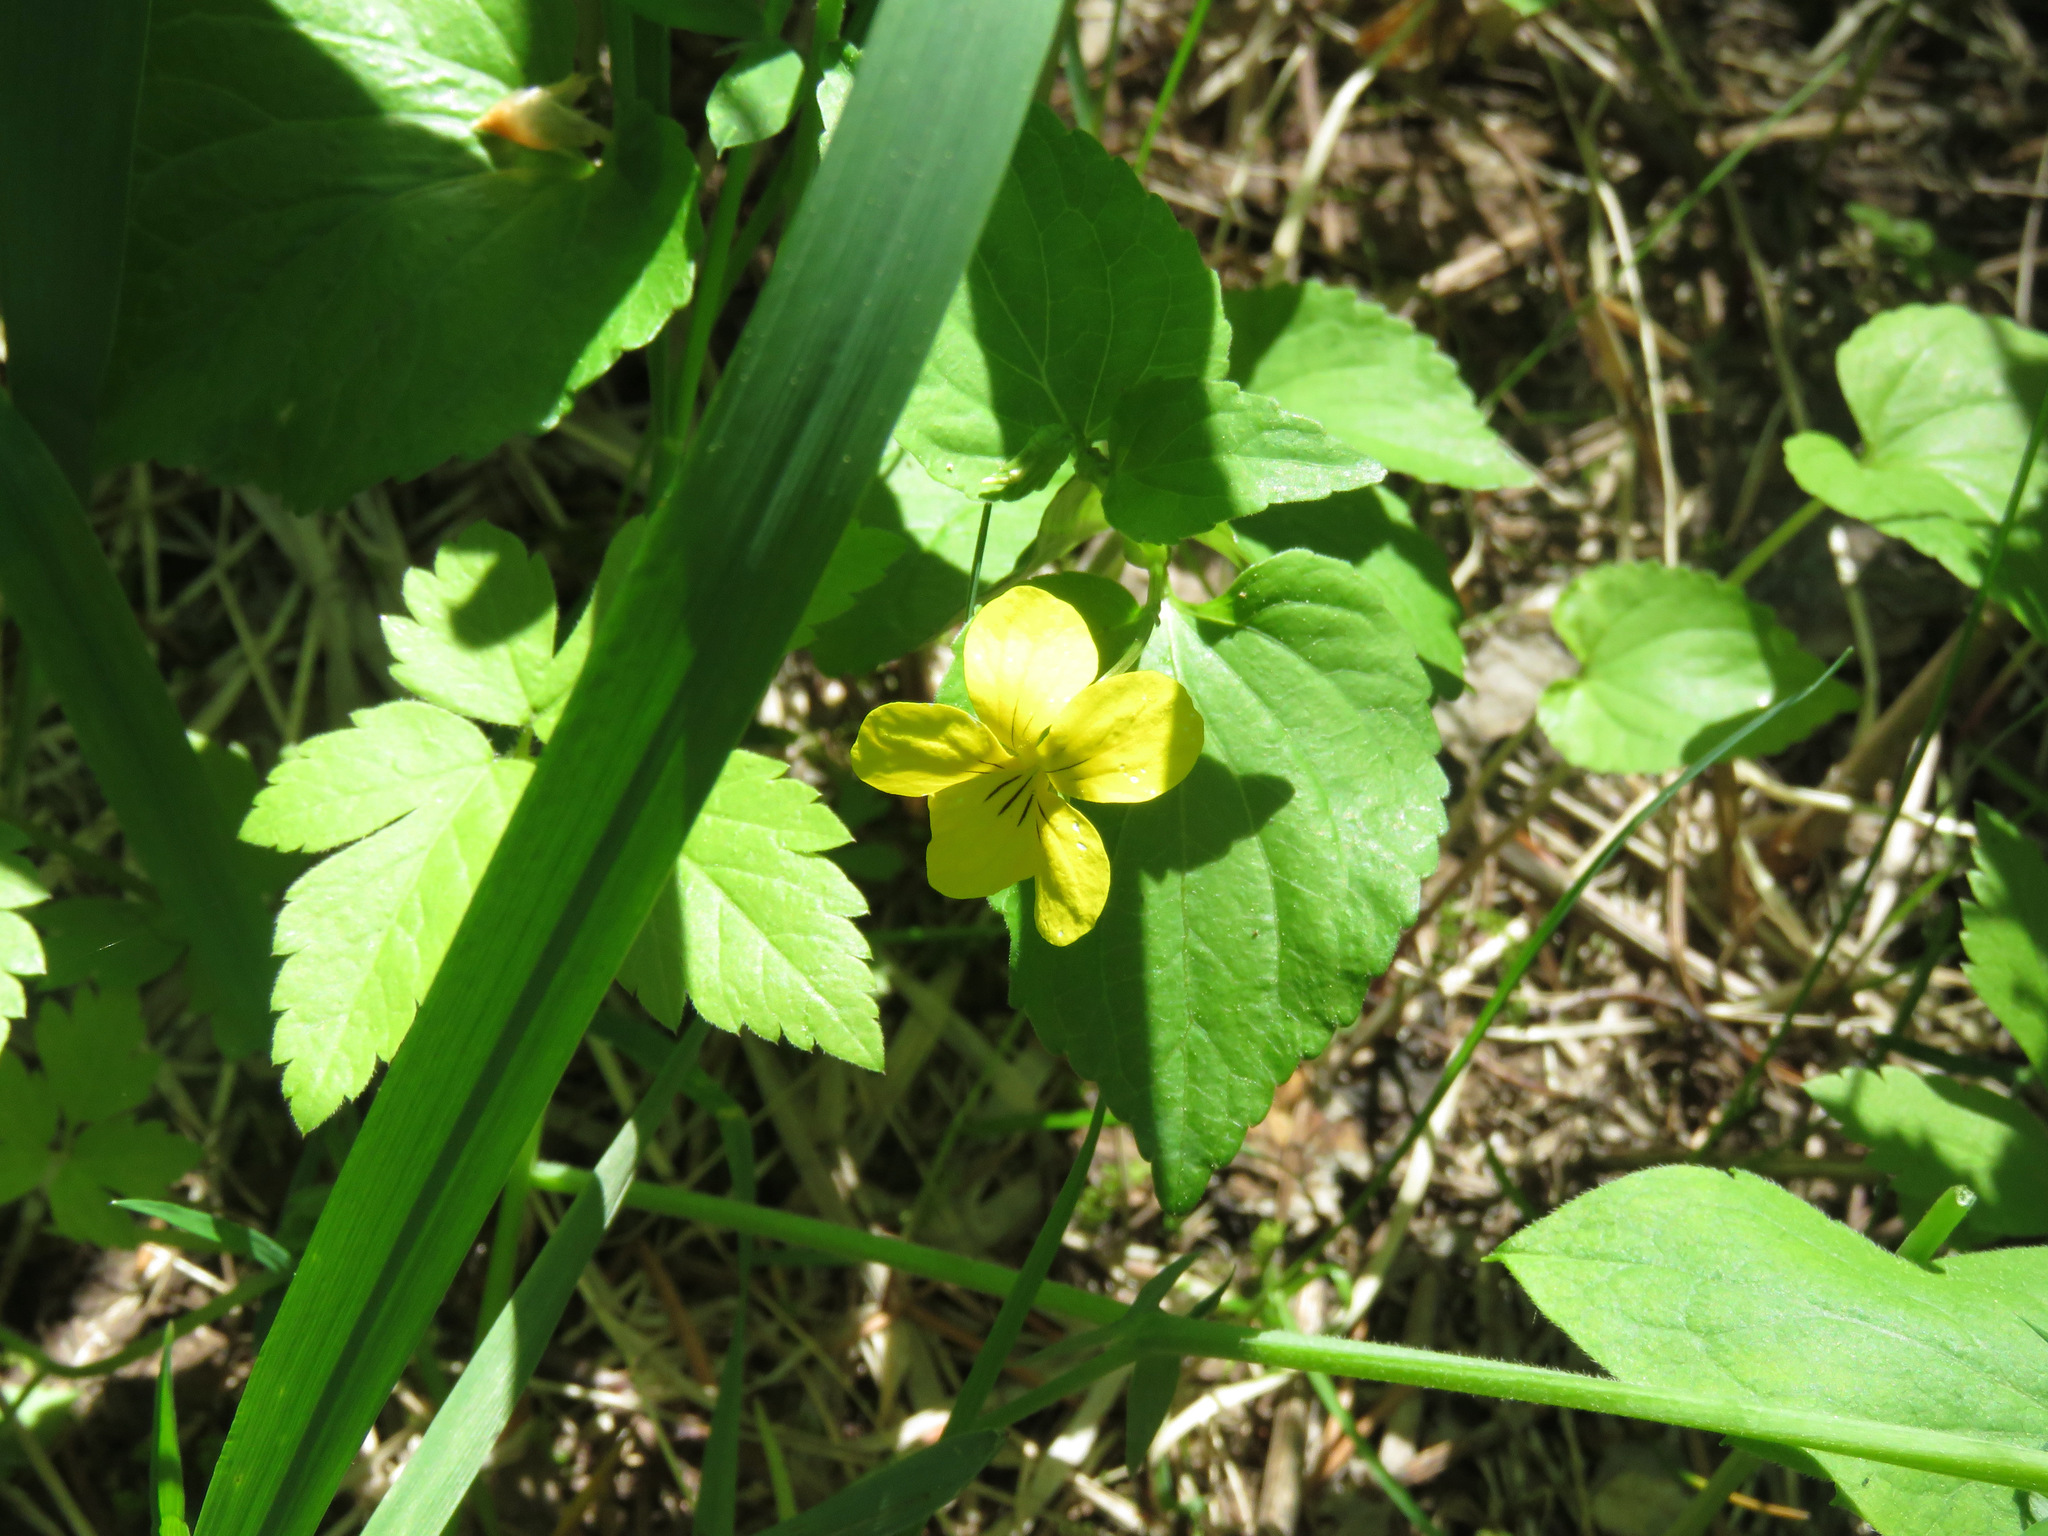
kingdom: Plantae
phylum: Tracheophyta
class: Magnoliopsida
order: Malpighiales
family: Violaceae
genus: Viola
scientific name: Viola glabella
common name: Stream violet
